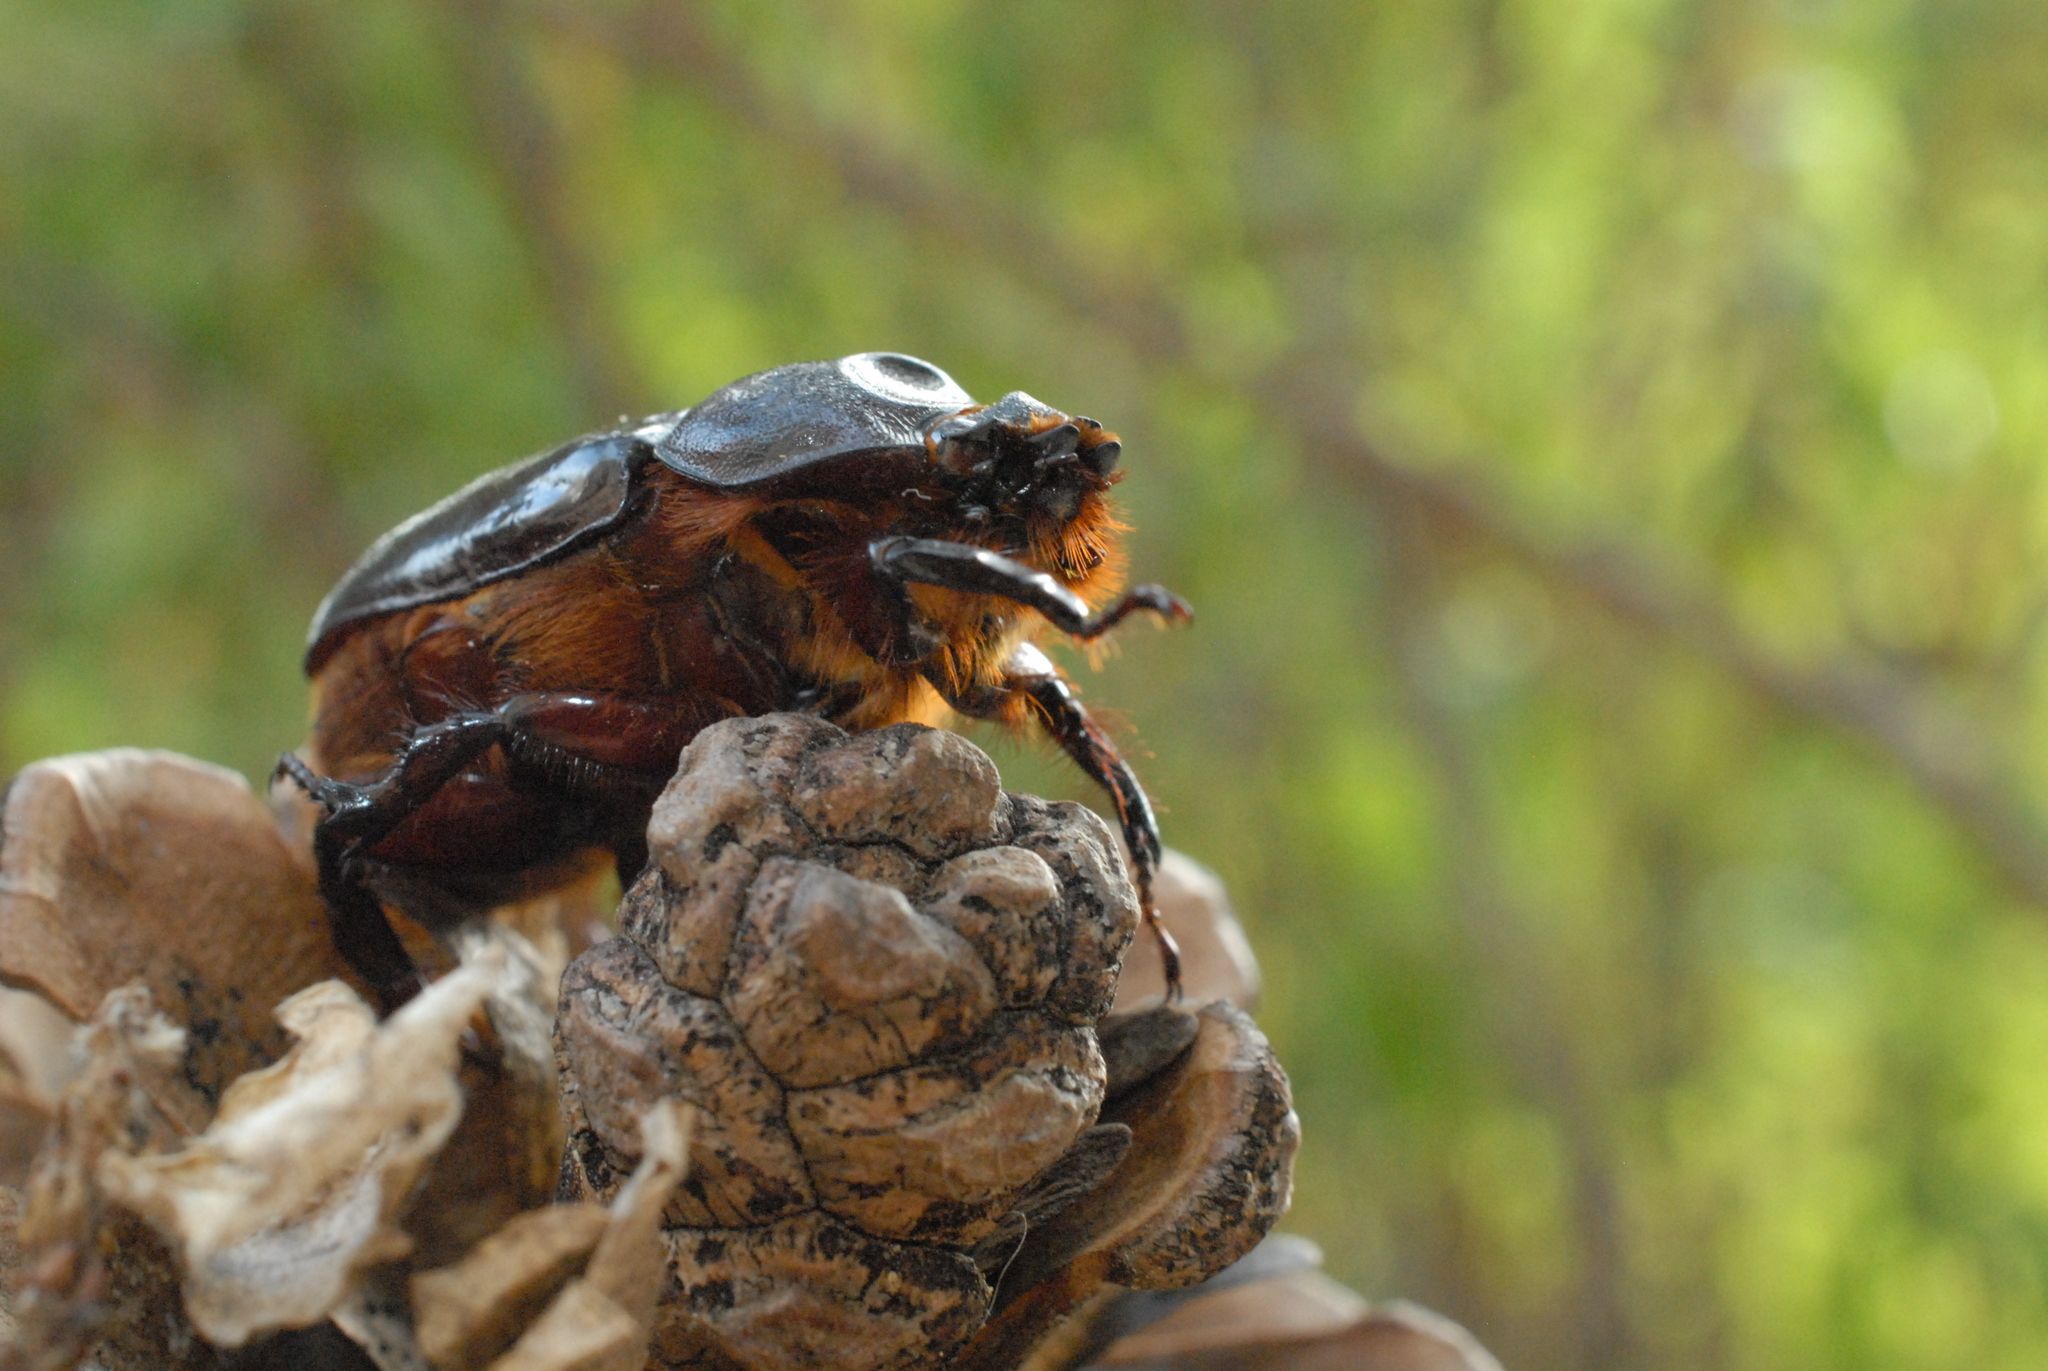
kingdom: Animalia
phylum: Arthropoda
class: Insecta
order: Coleoptera
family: Scarabaeidae
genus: Oryctes
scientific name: Oryctes nasicornis
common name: European rhinoceros beetle
